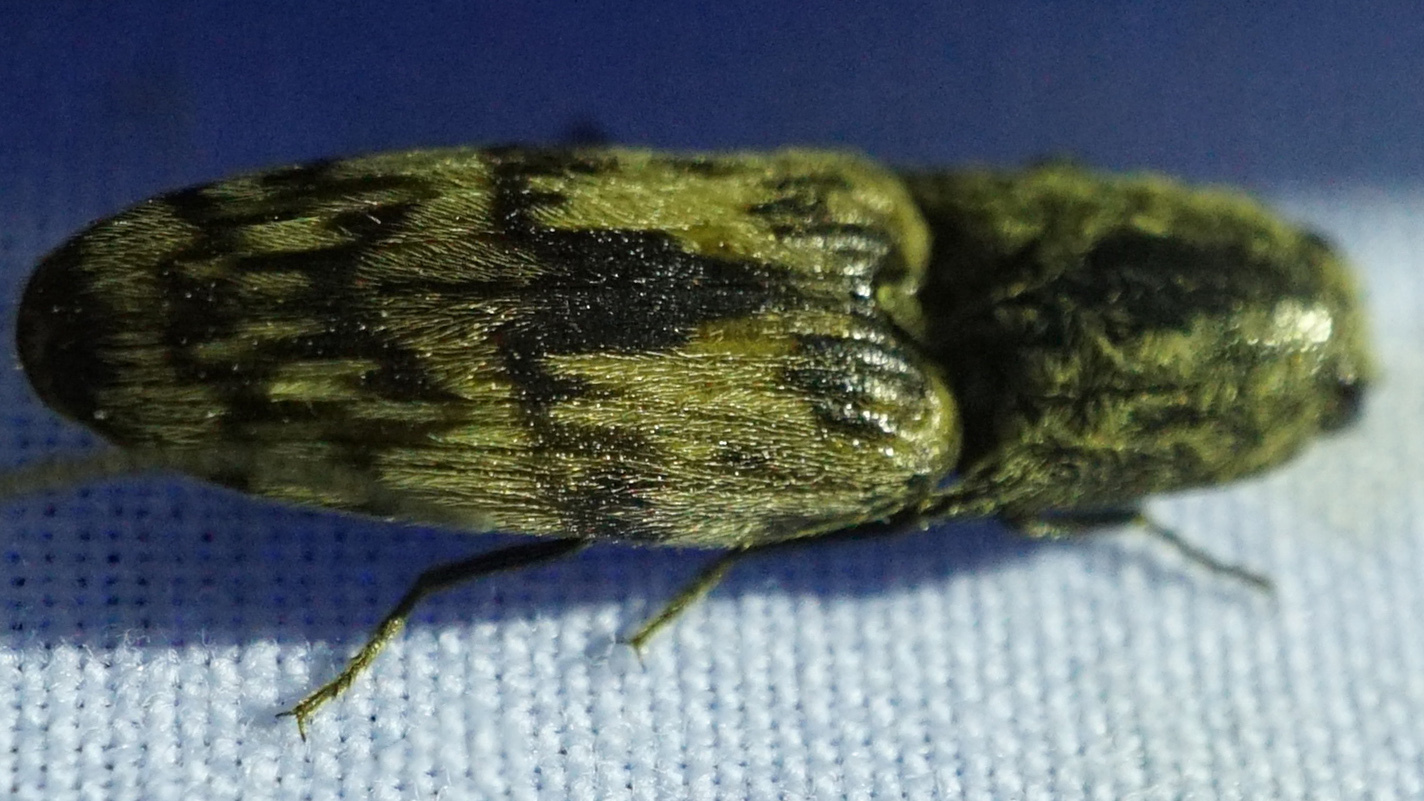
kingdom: Animalia
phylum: Arthropoda
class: Insecta
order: Coleoptera
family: Elateridae
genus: Pherhimius
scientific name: Pherhimius fascicularis
